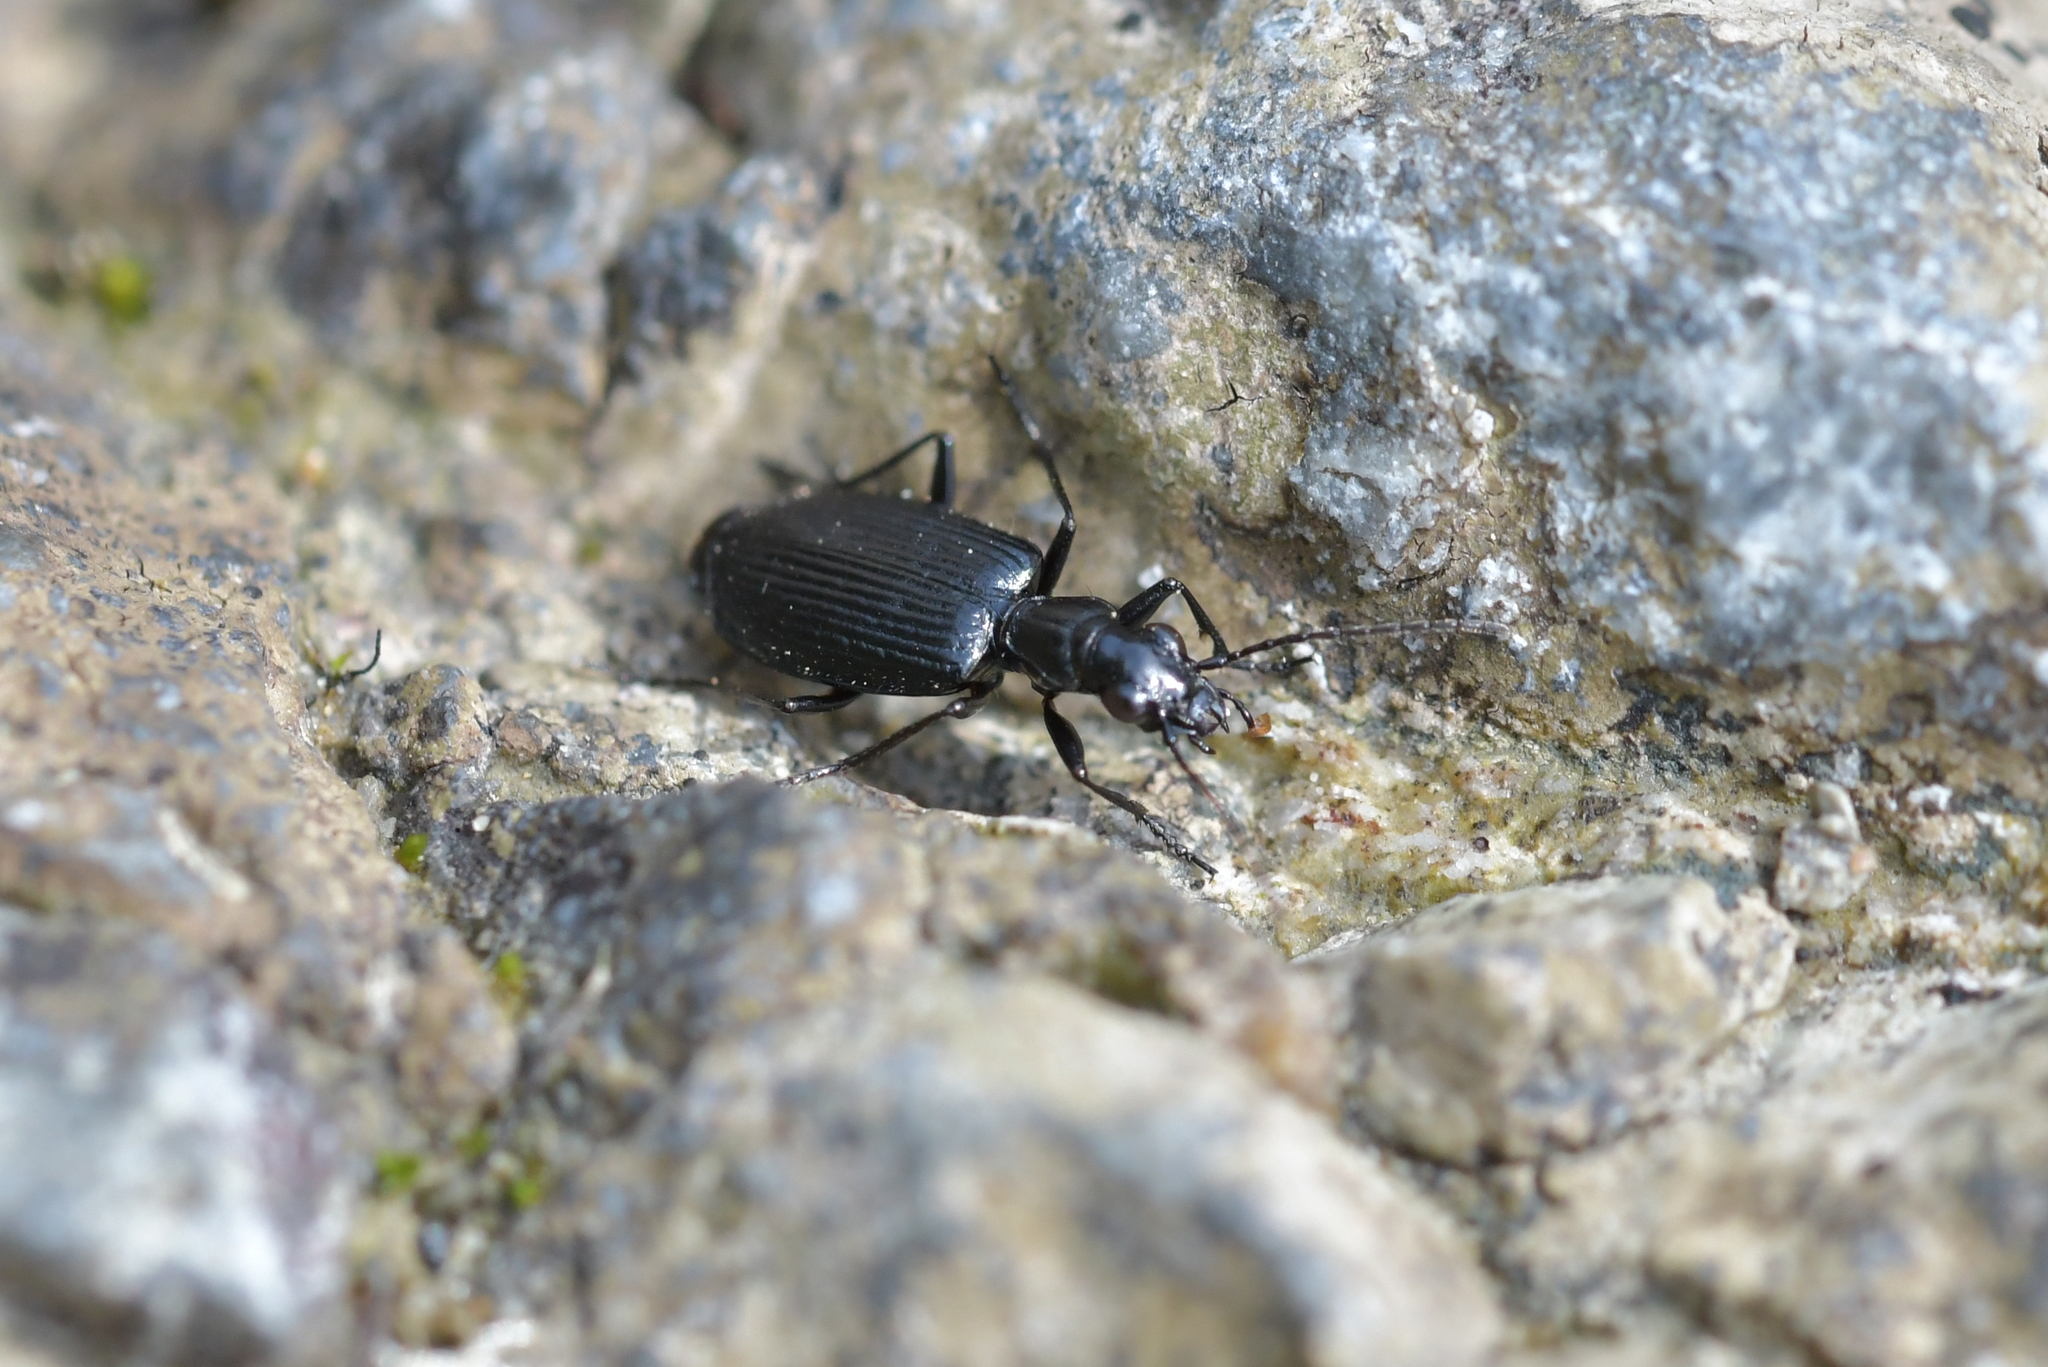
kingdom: Animalia
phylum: Arthropoda
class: Insecta
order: Coleoptera
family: Carabidae
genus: Actenonyx
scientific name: Actenonyx bembidioides
